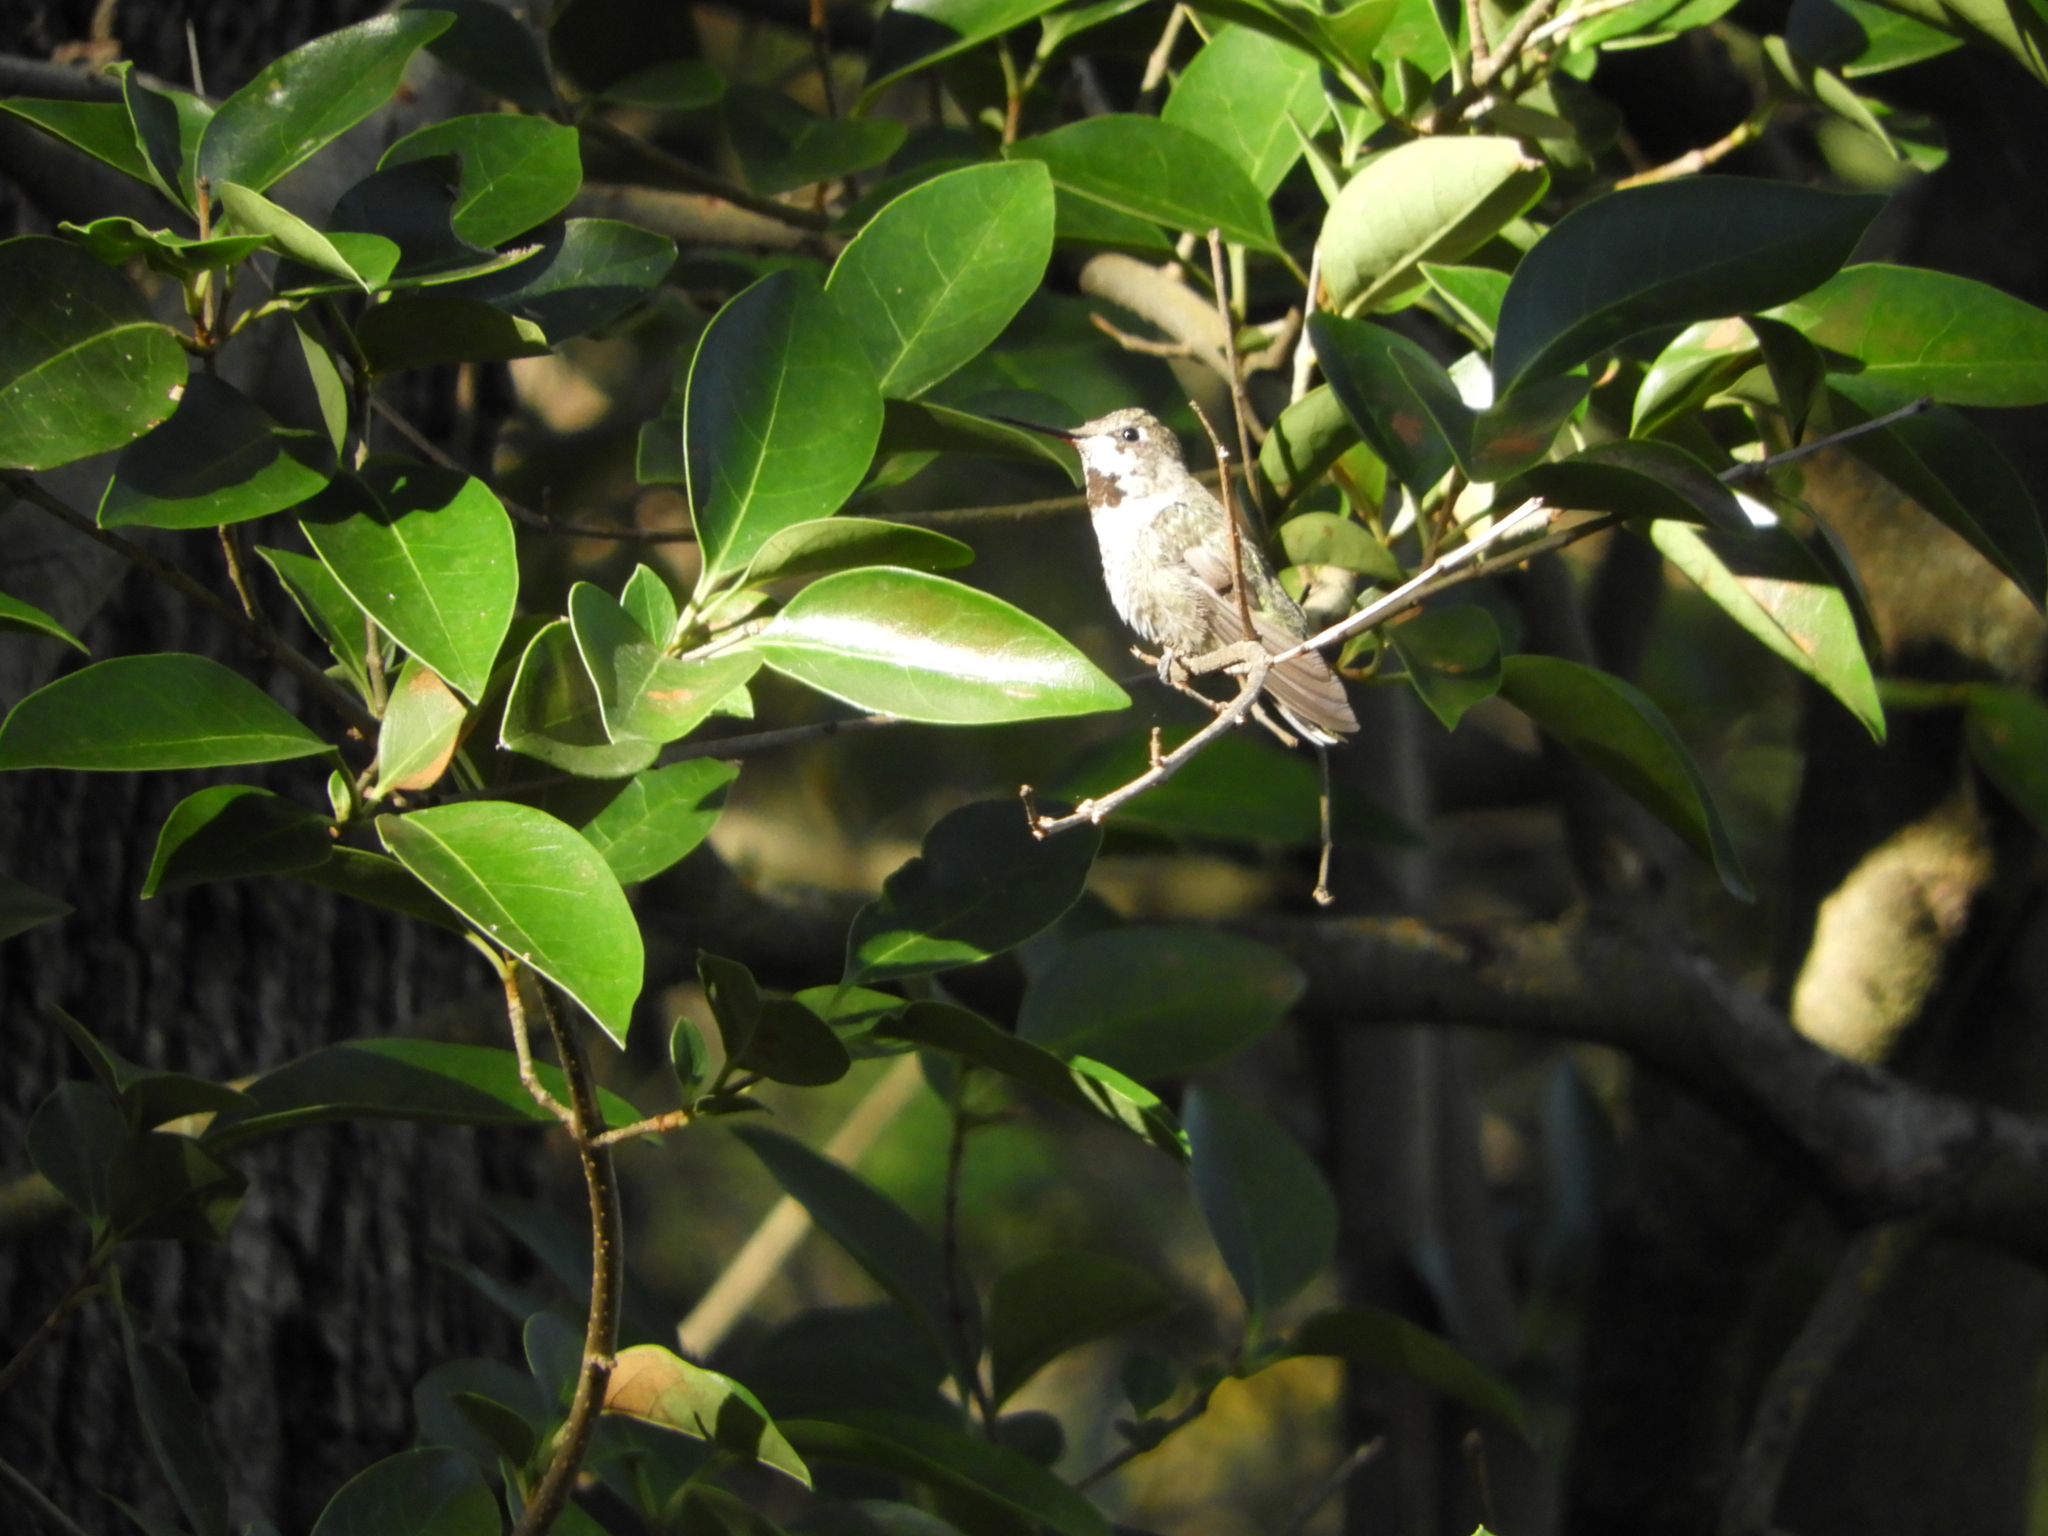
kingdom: Animalia
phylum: Chordata
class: Aves
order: Apodiformes
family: Trochilidae
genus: Calypte
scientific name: Calypte anna
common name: Anna's hummingbird
